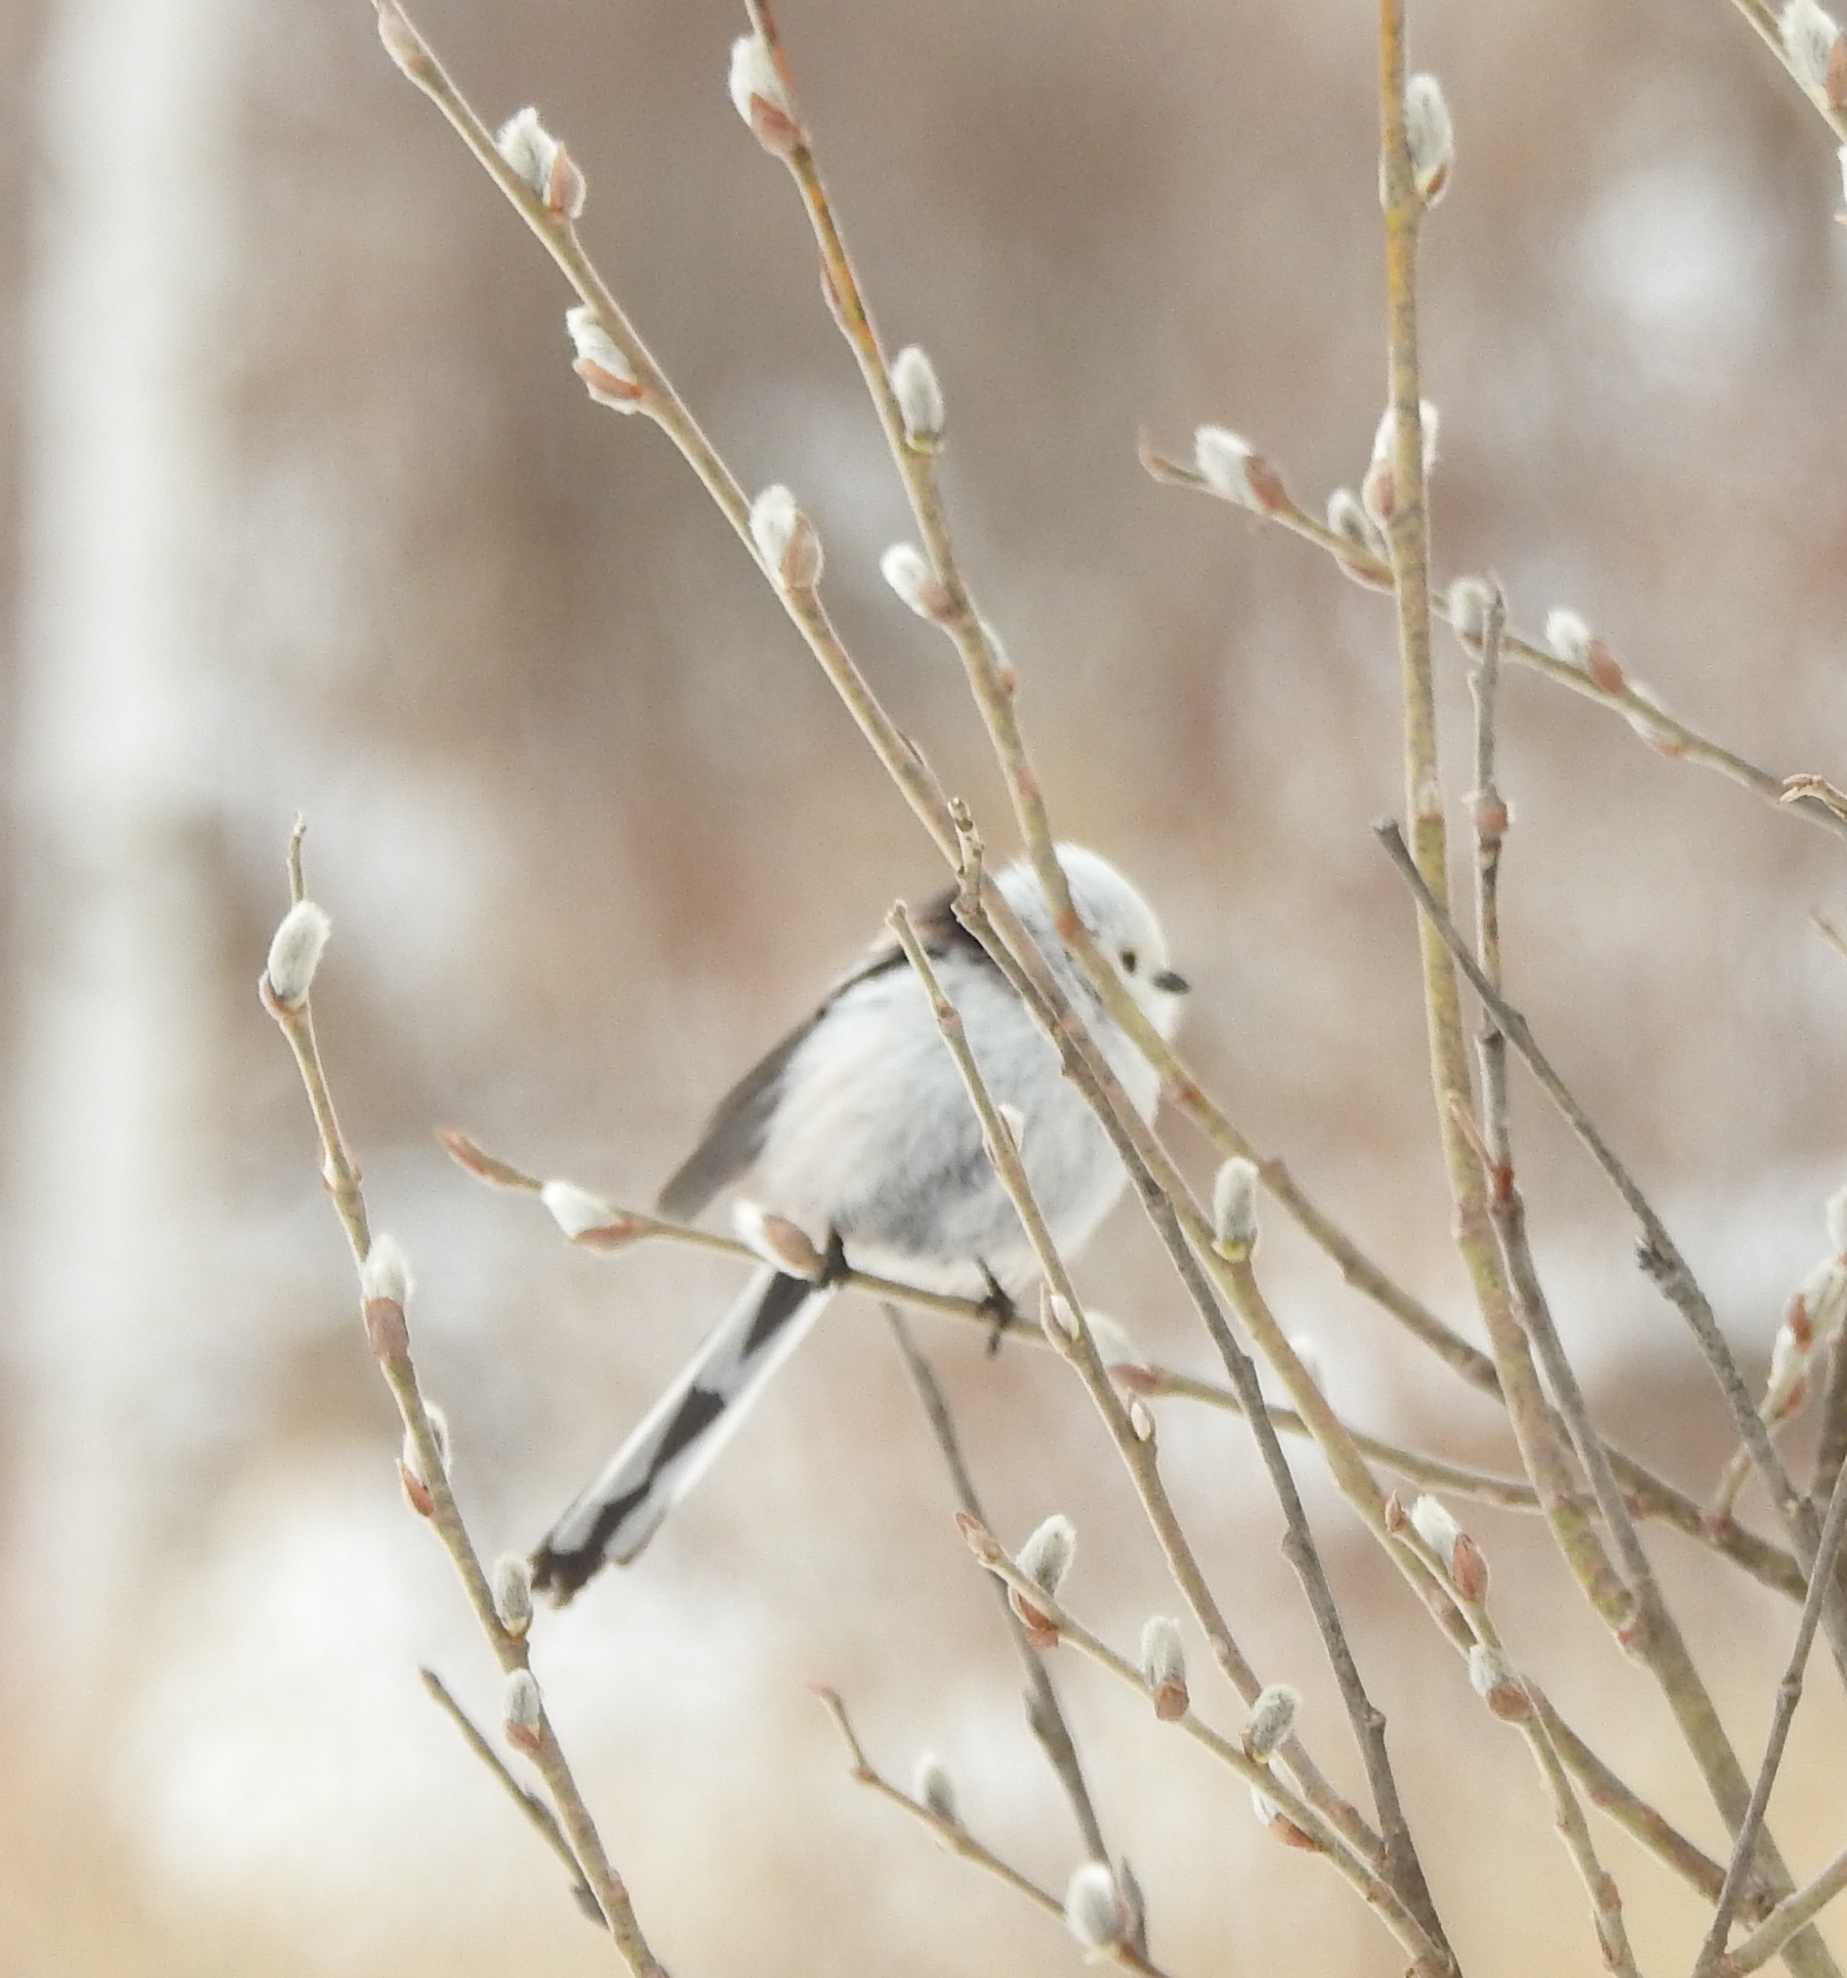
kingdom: Animalia
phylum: Chordata
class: Aves
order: Passeriformes
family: Aegithalidae
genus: Aegithalos
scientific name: Aegithalos caudatus
